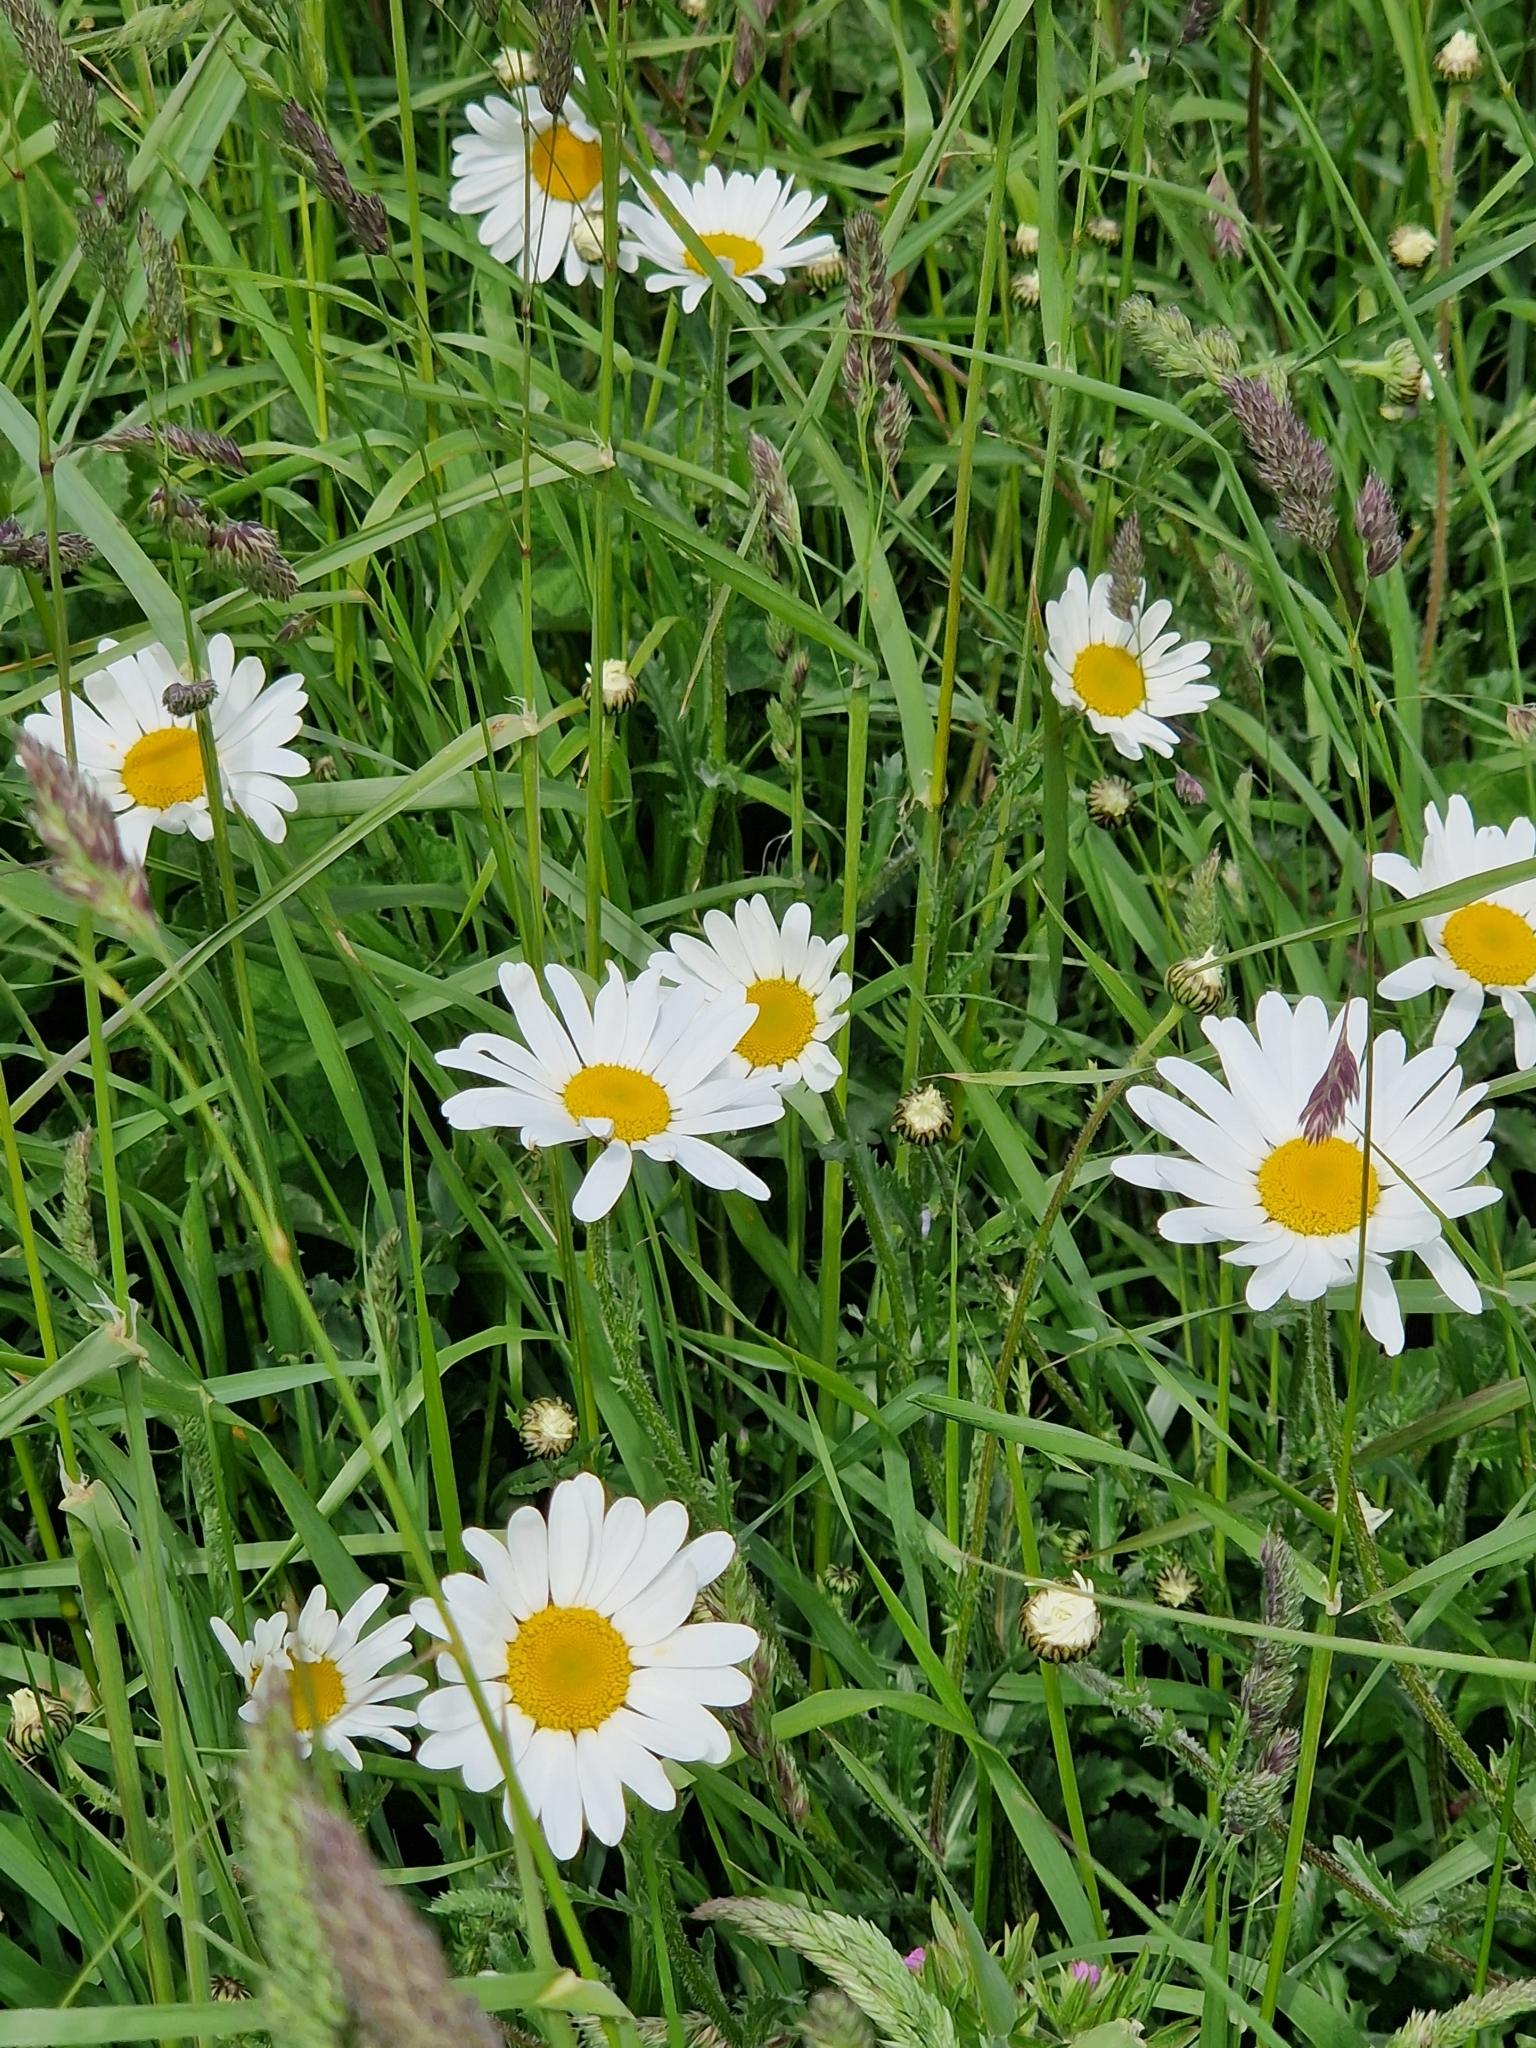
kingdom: Plantae
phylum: Tracheophyta
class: Magnoliopsida
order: Asterales
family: Asteraceae
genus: Leucanthemum
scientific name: Leucanthemum vulgare
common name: Oxeye daisy
